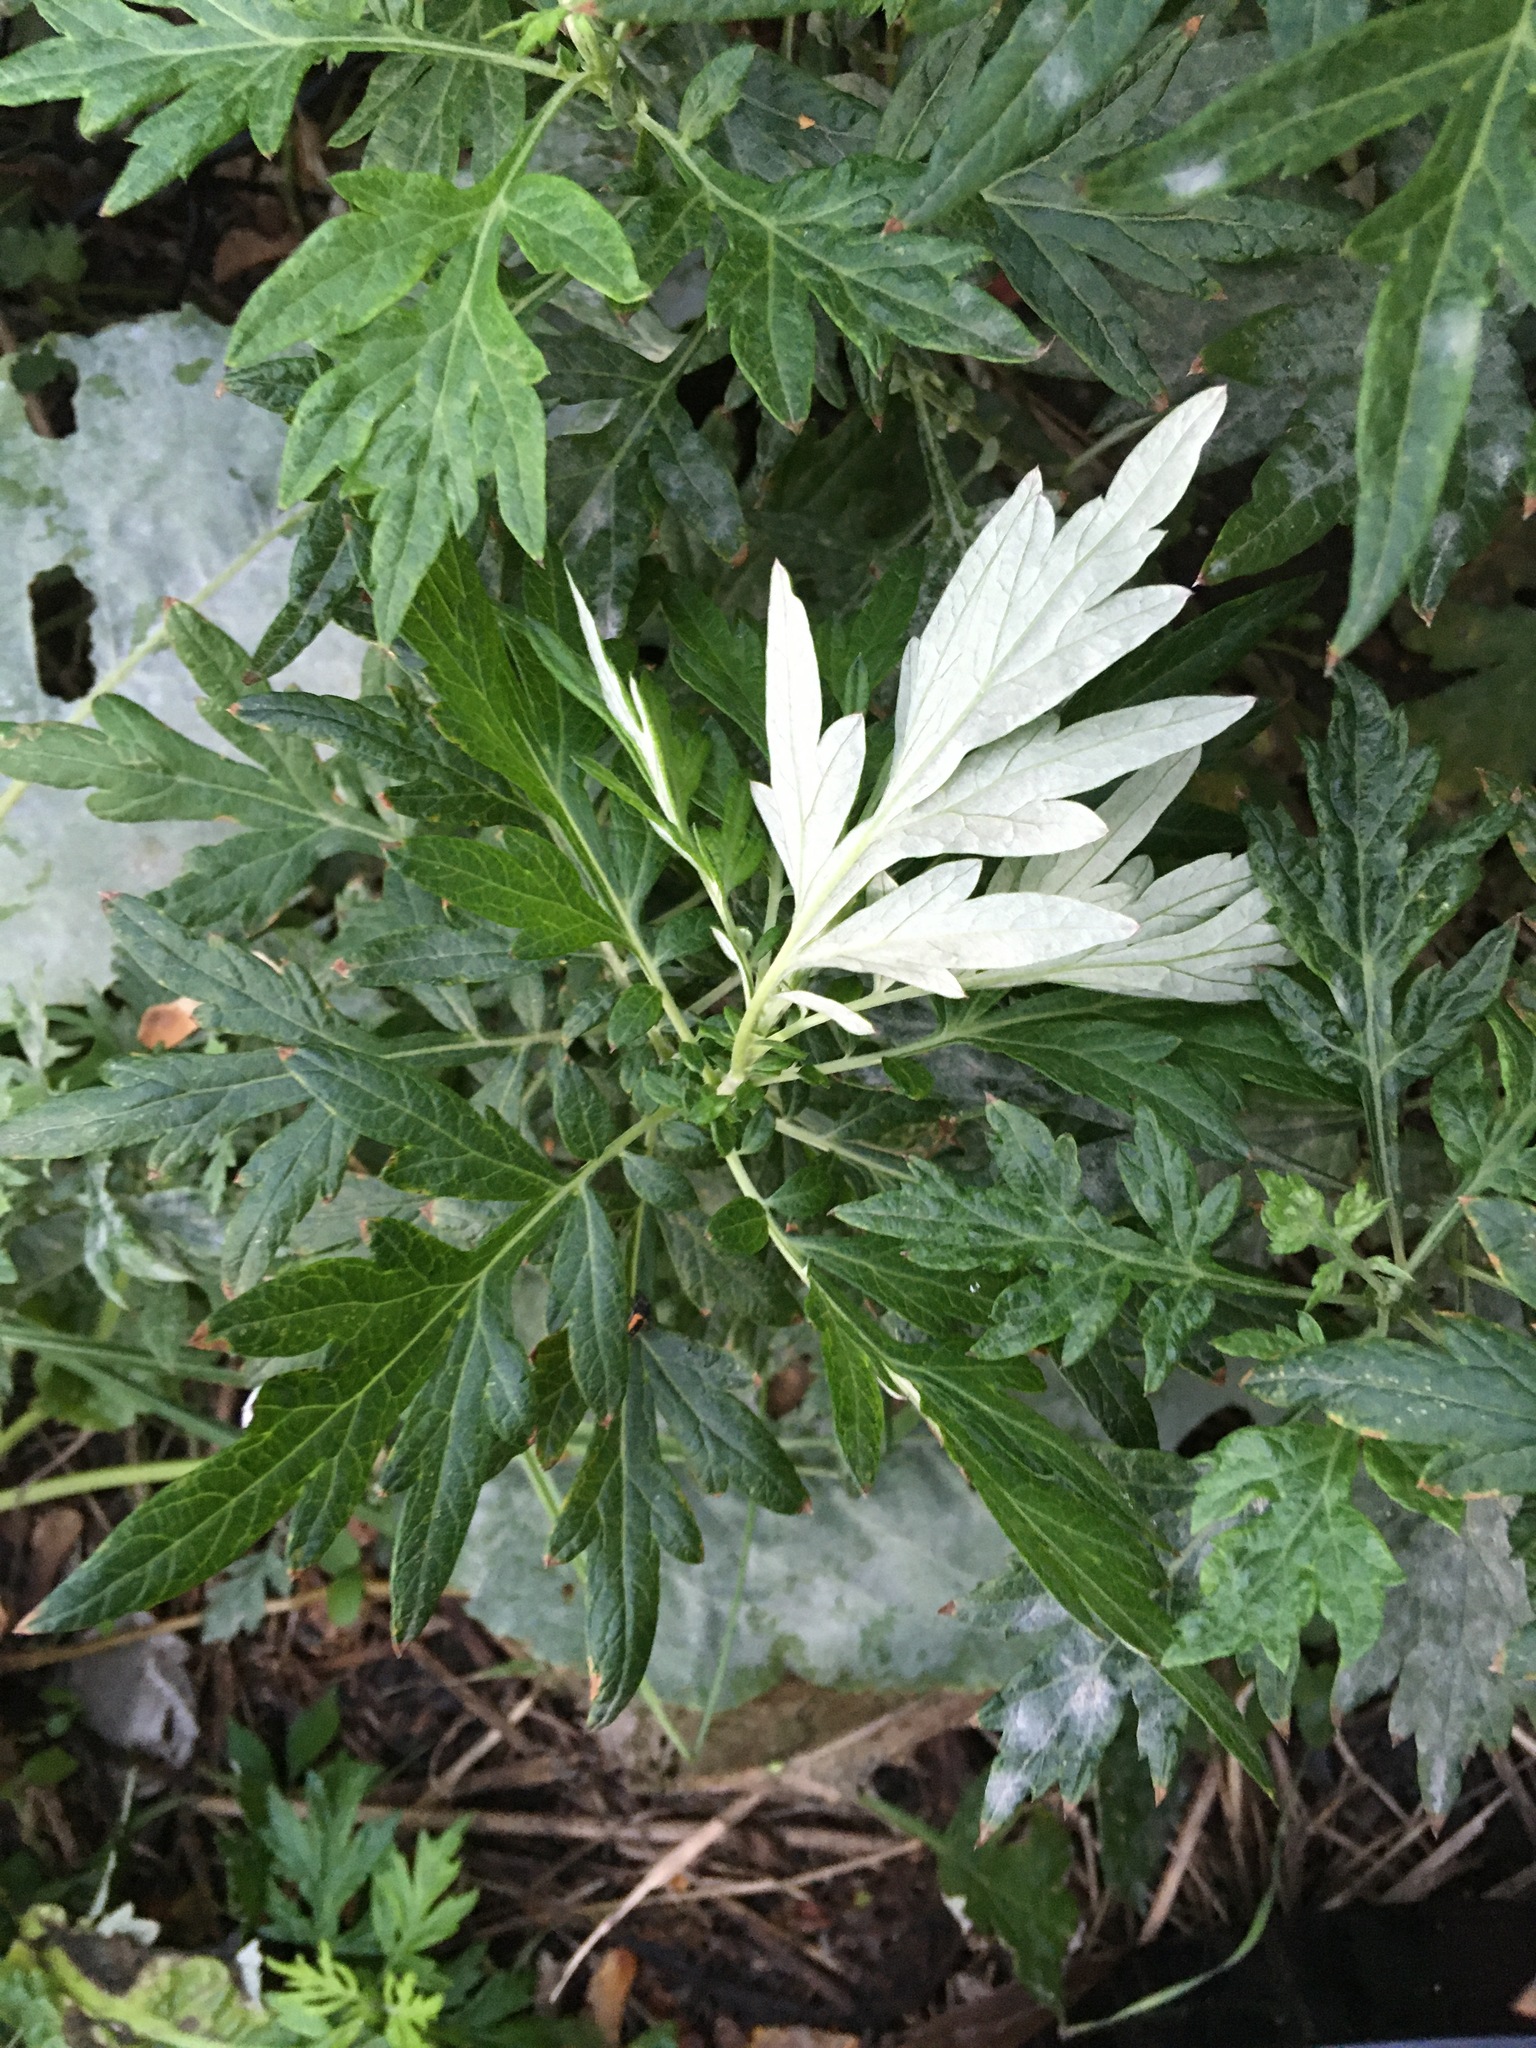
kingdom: Plantae
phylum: Tracheophyta
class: Magnoliopsida
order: Asterales
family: Asteraceae
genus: Artemisia
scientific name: Artemisia vulgaris
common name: Mugwort
